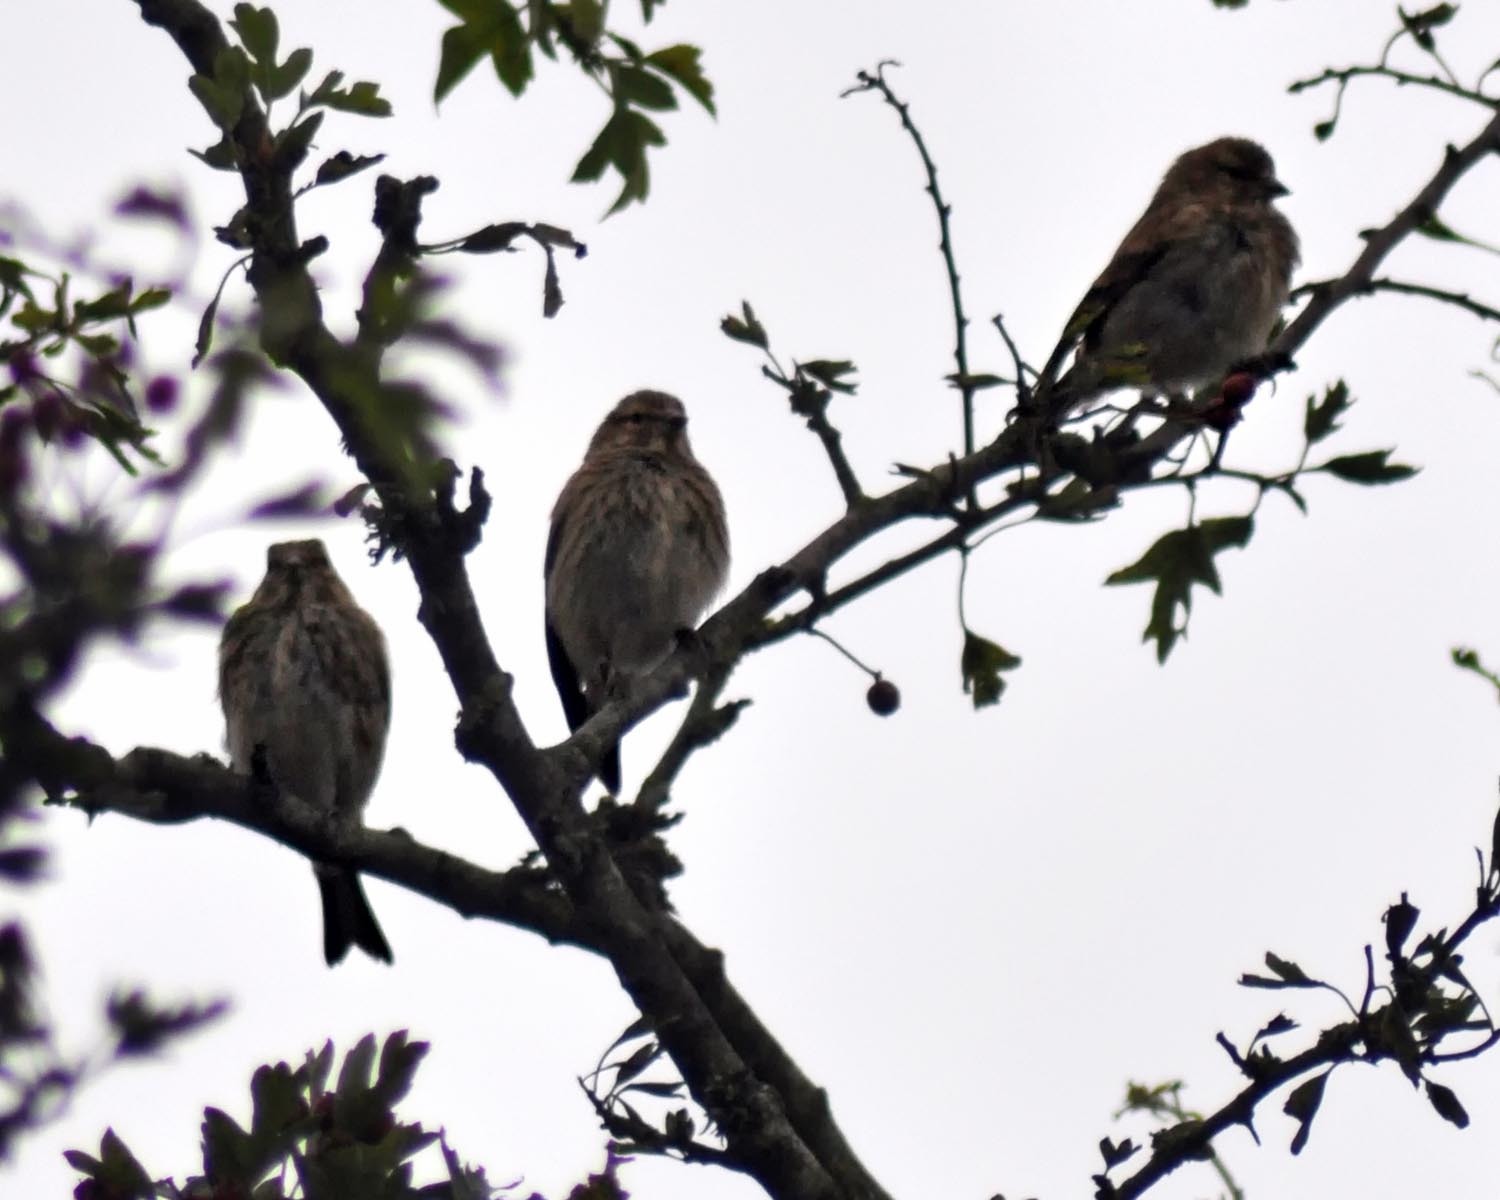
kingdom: Animalia
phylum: Chordata
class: Aves
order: Passeriformes
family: Fringillidae
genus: Linaria
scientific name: Linaria cannabina
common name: Common linnet
